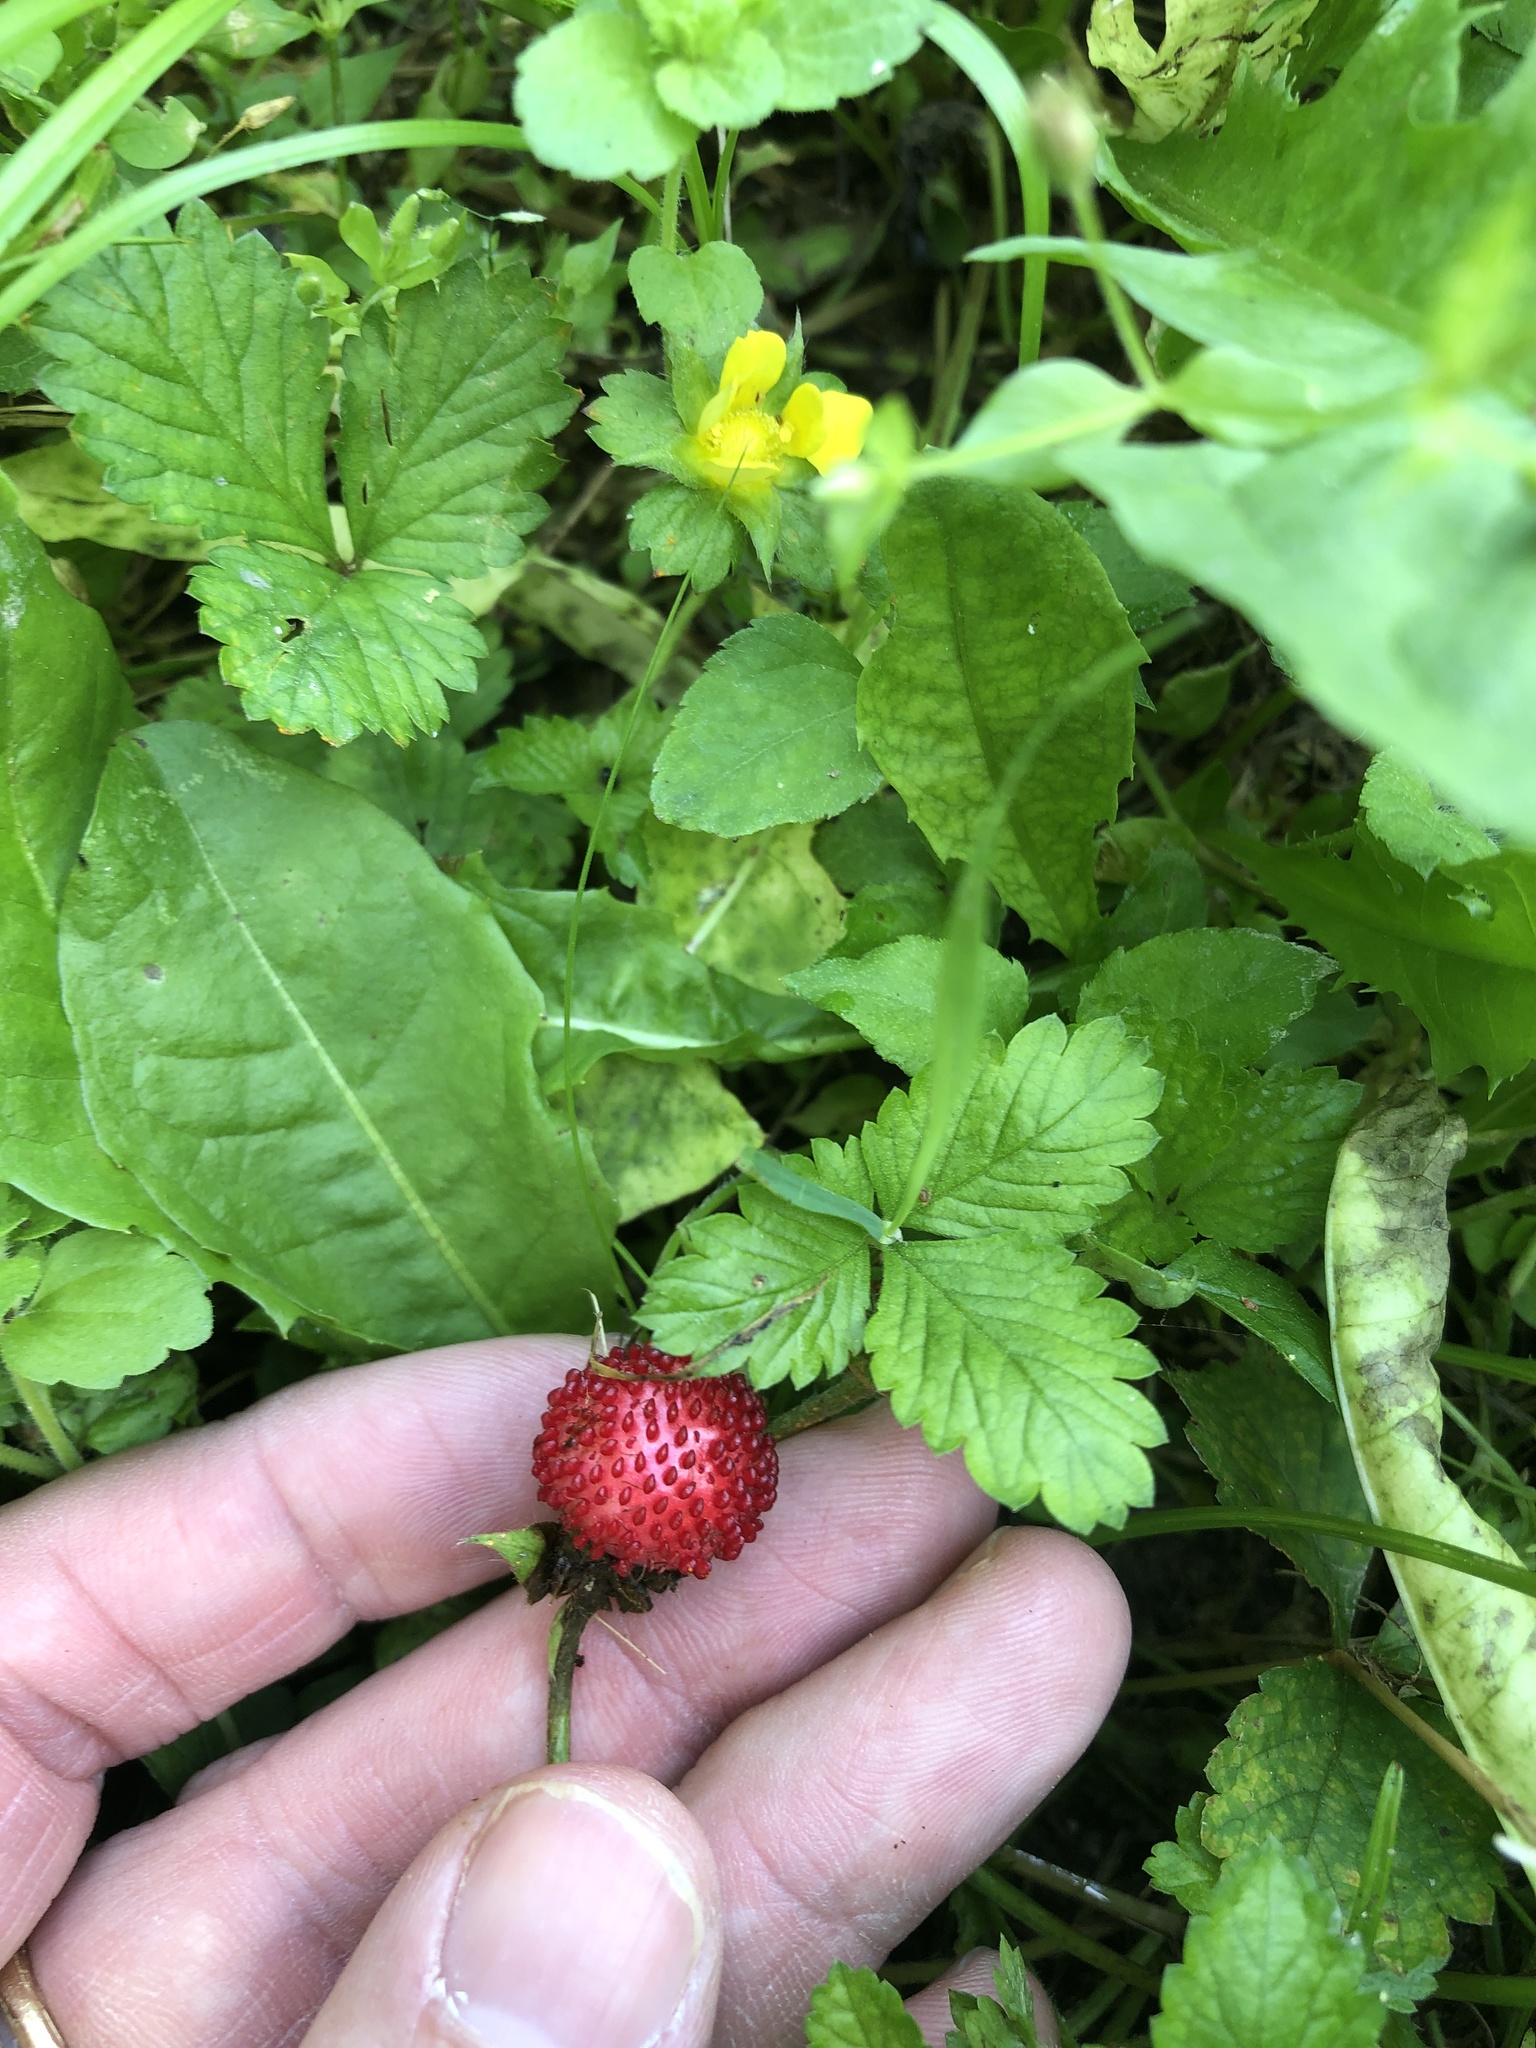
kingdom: Plantae
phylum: Tracheophyta
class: Magnoliopsida
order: Rosales
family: Rosaceae
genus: Potentilla
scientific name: Potentilla indica
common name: Yellow-flowered strawberry
